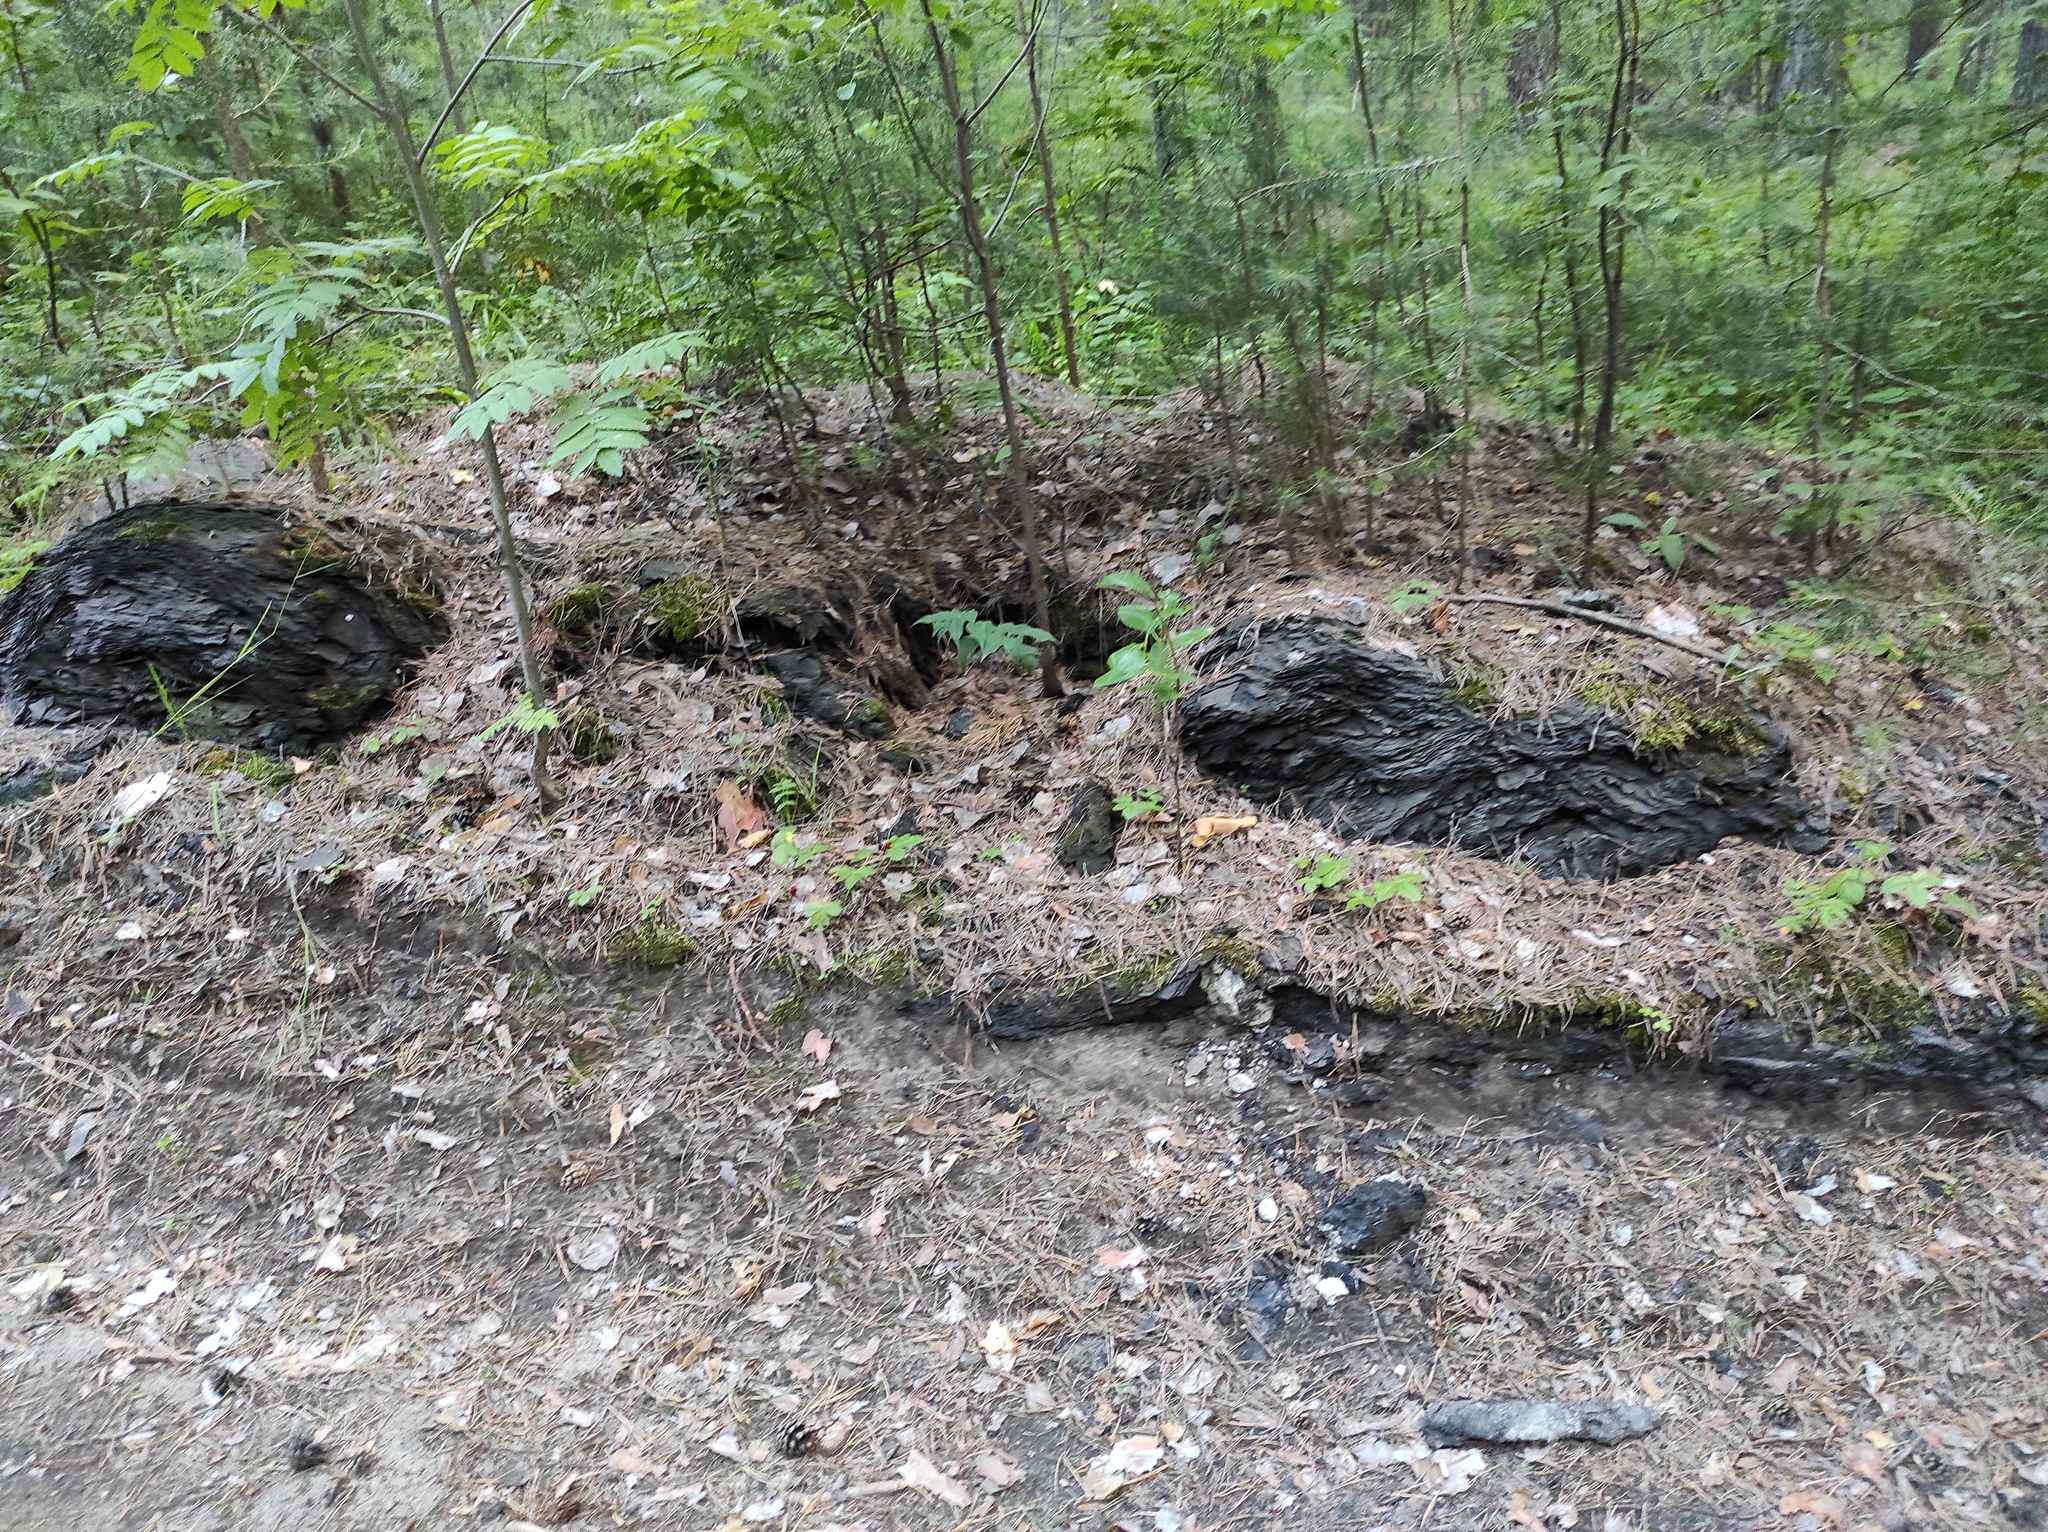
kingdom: Plantae
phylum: Tracheophyta
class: Pinopsida
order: Pinales
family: Pinaceae
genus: Pinus
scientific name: Pinus sylvestris
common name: Scots pine
